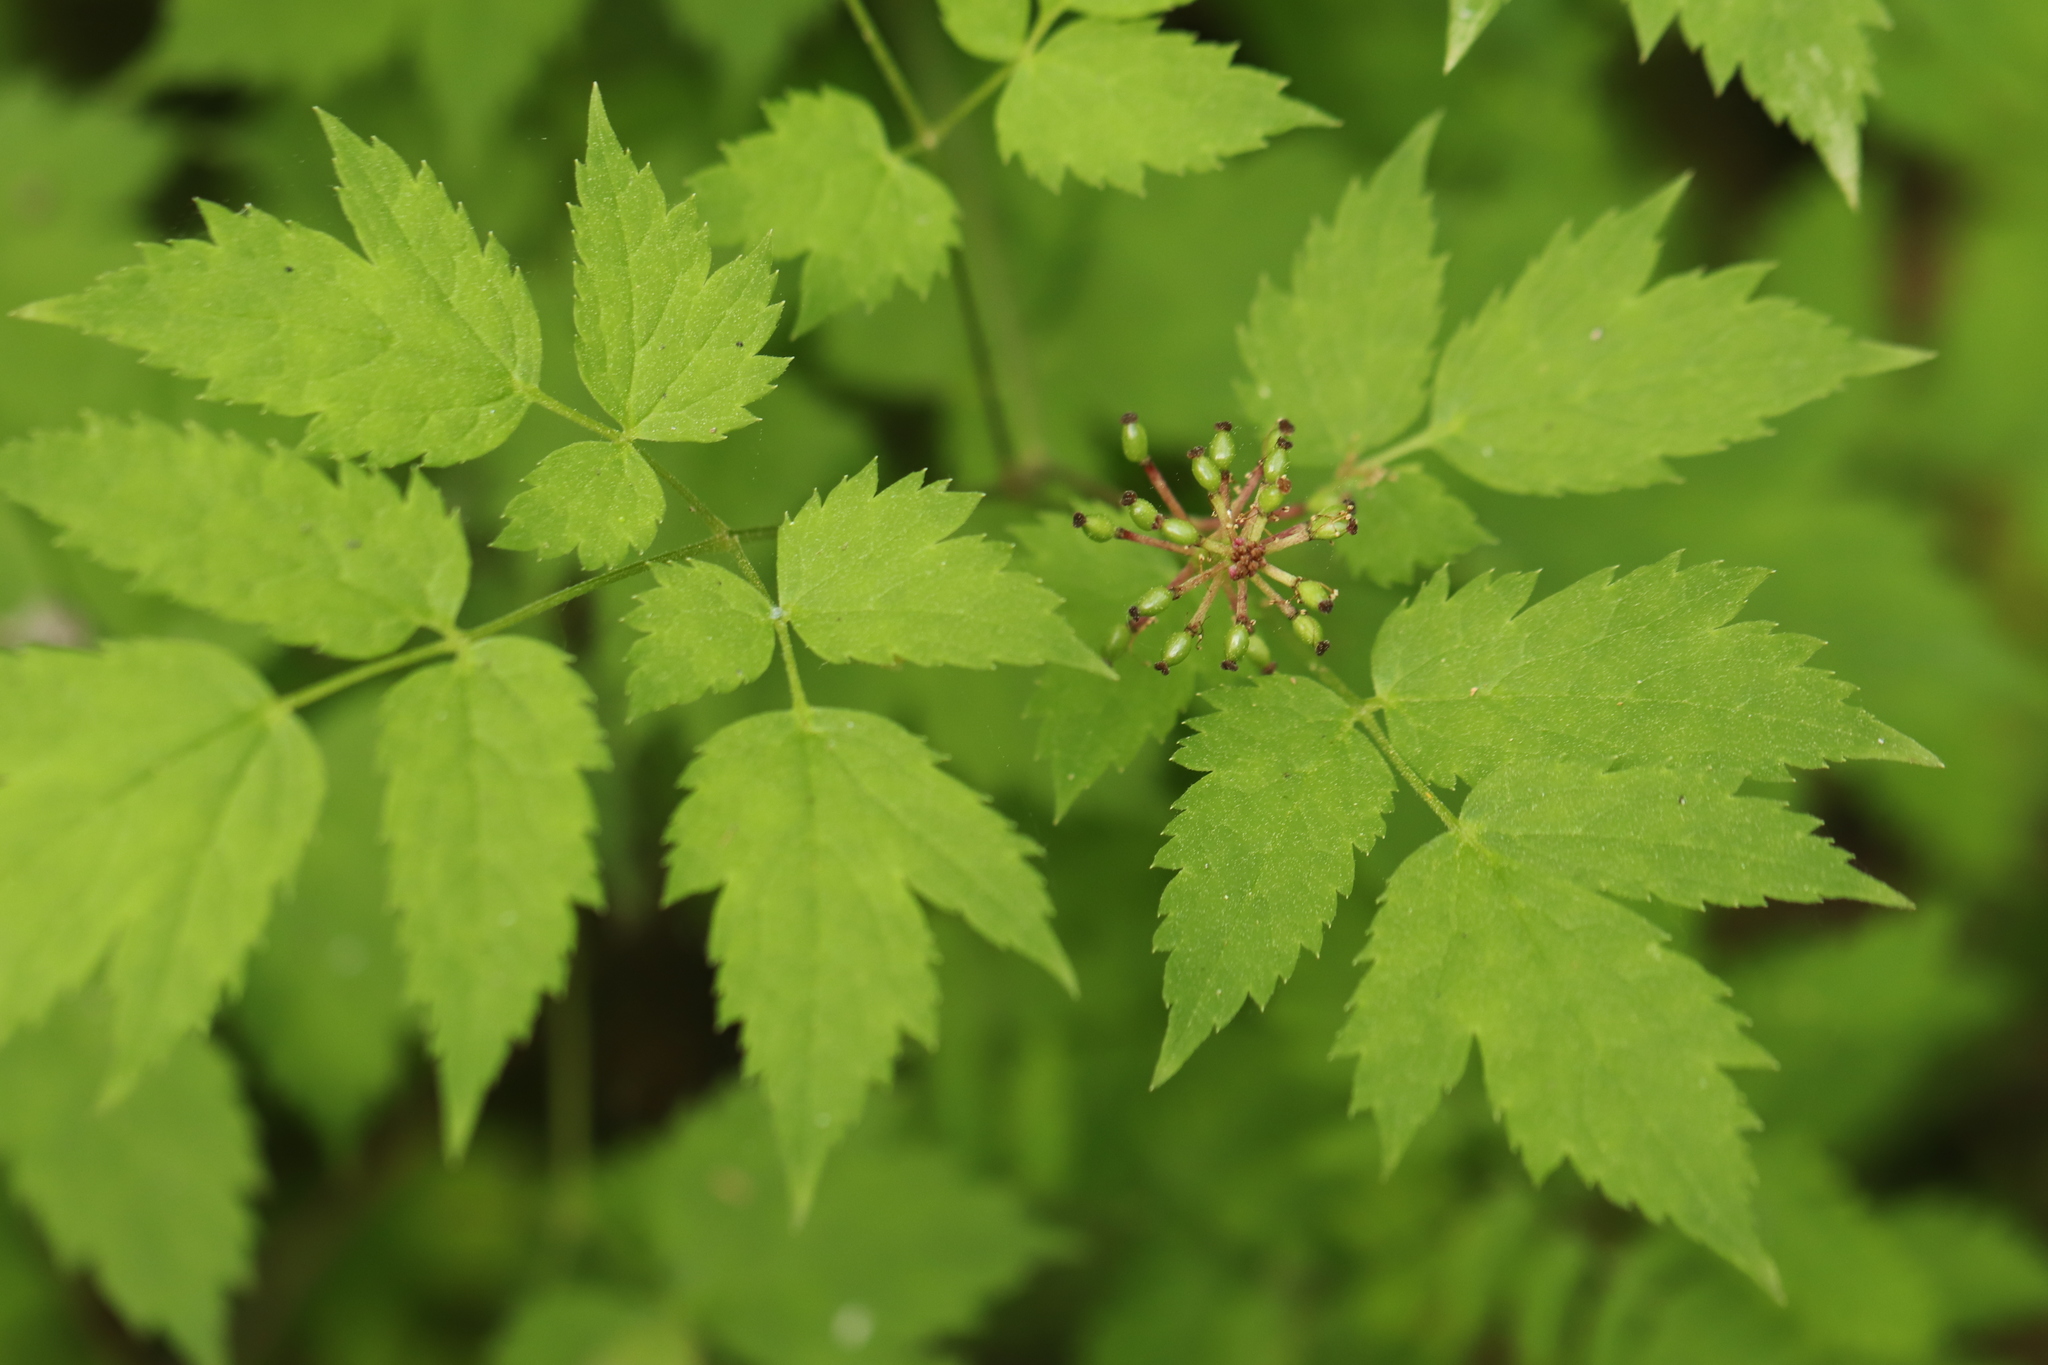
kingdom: Plantae
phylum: Tracheophyta
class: Magnoliopsida
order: Ranunculales
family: Ranunculaceae
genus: Actaea
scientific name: Actaea erythrocarpa
